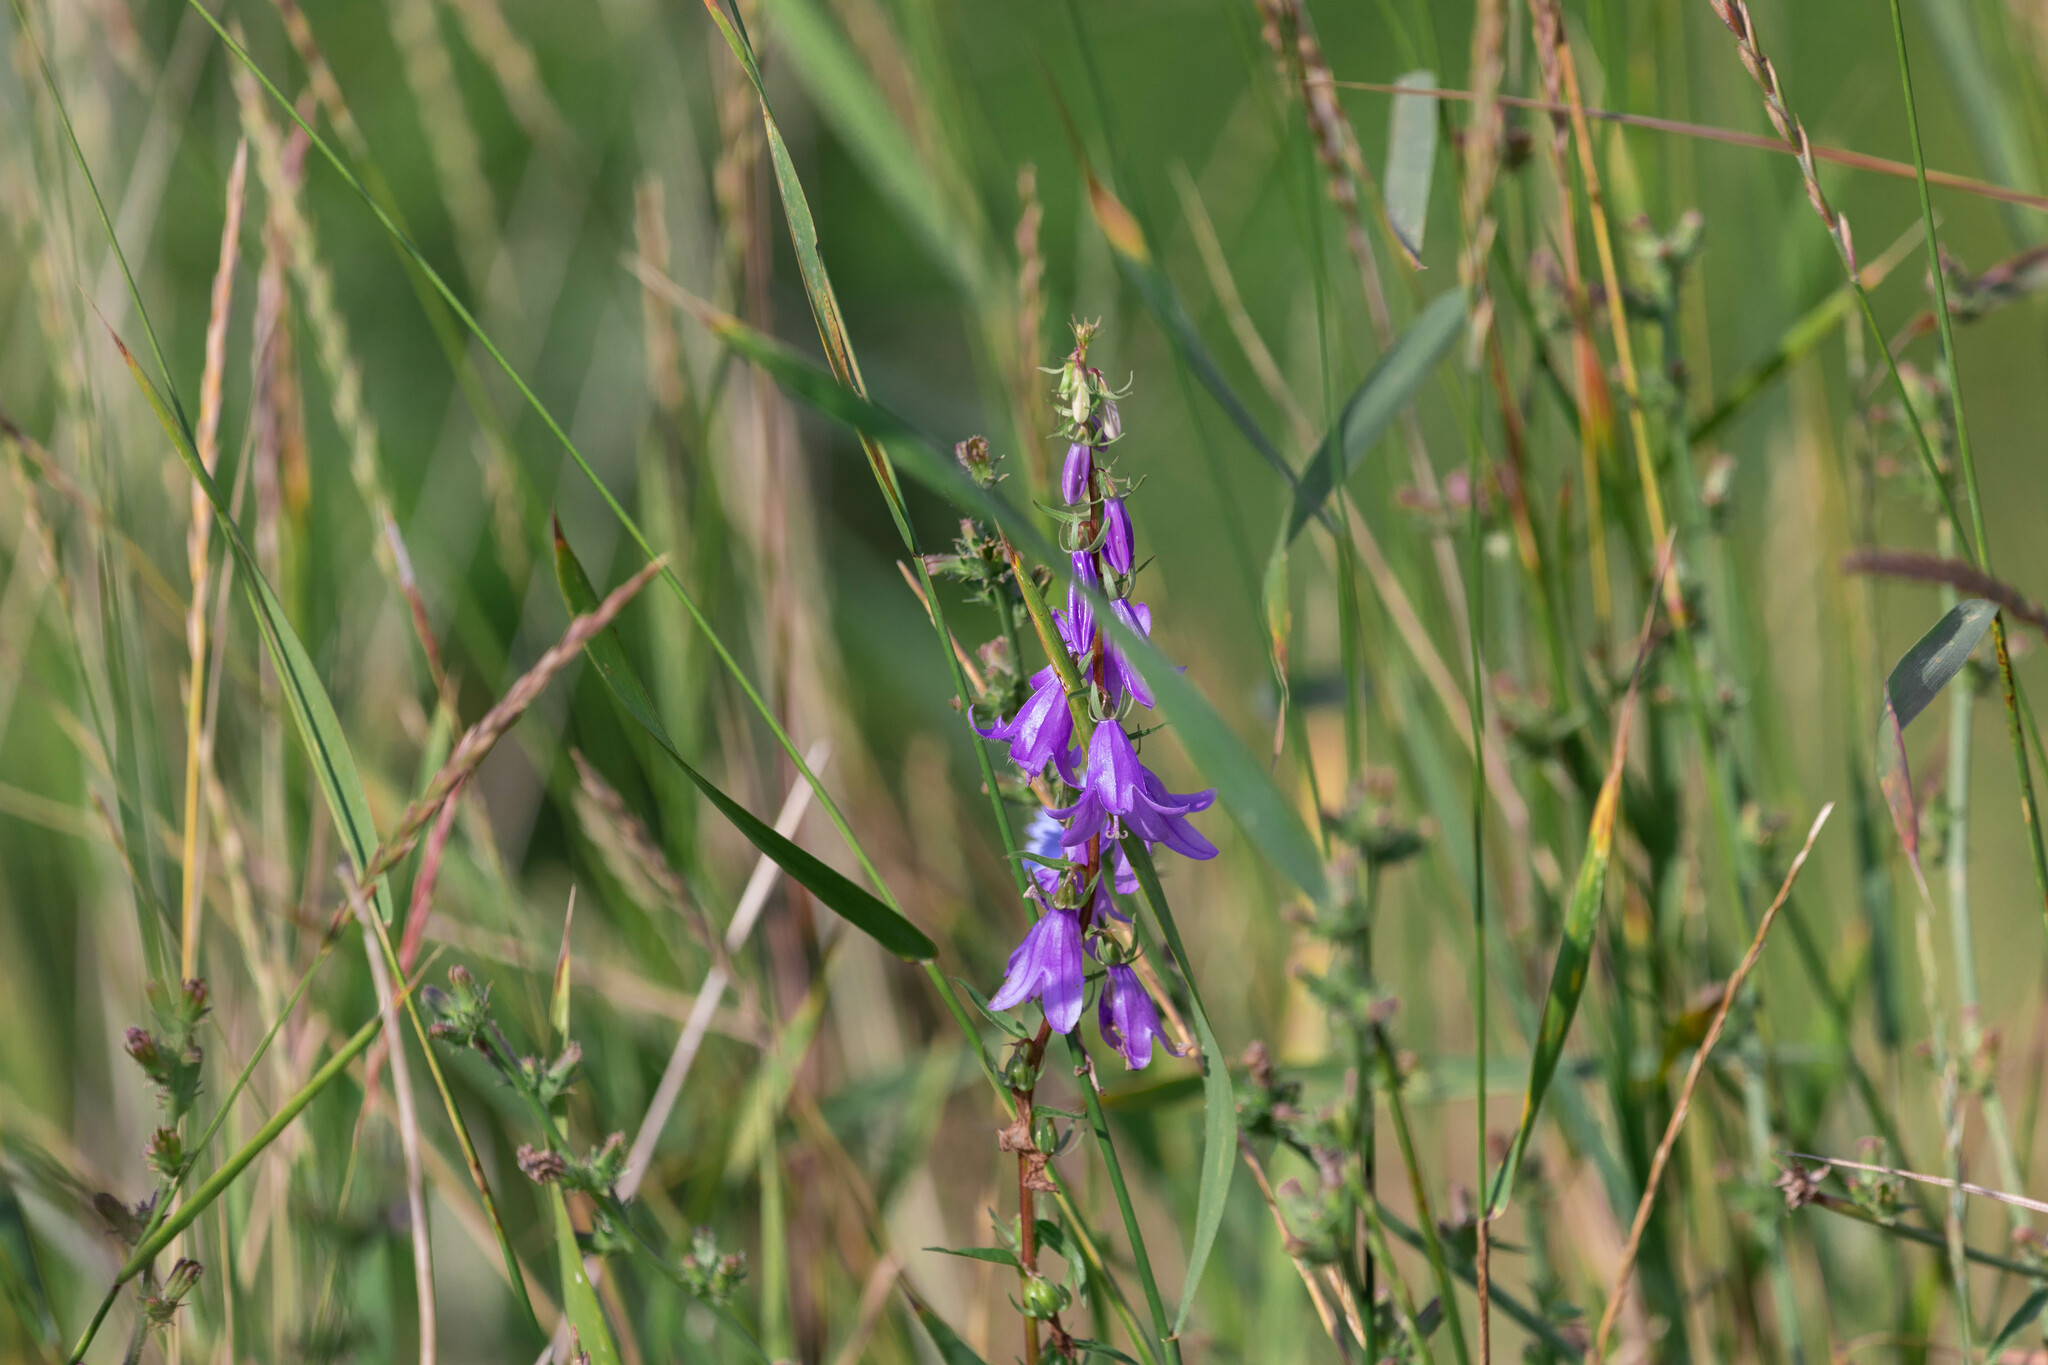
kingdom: Plantae
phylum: Tracheophyta
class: Magnoliopsida
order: Asterales
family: Campanulaceae
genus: Campanula
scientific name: Campanula rapunculoides
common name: Creeping bellflower
